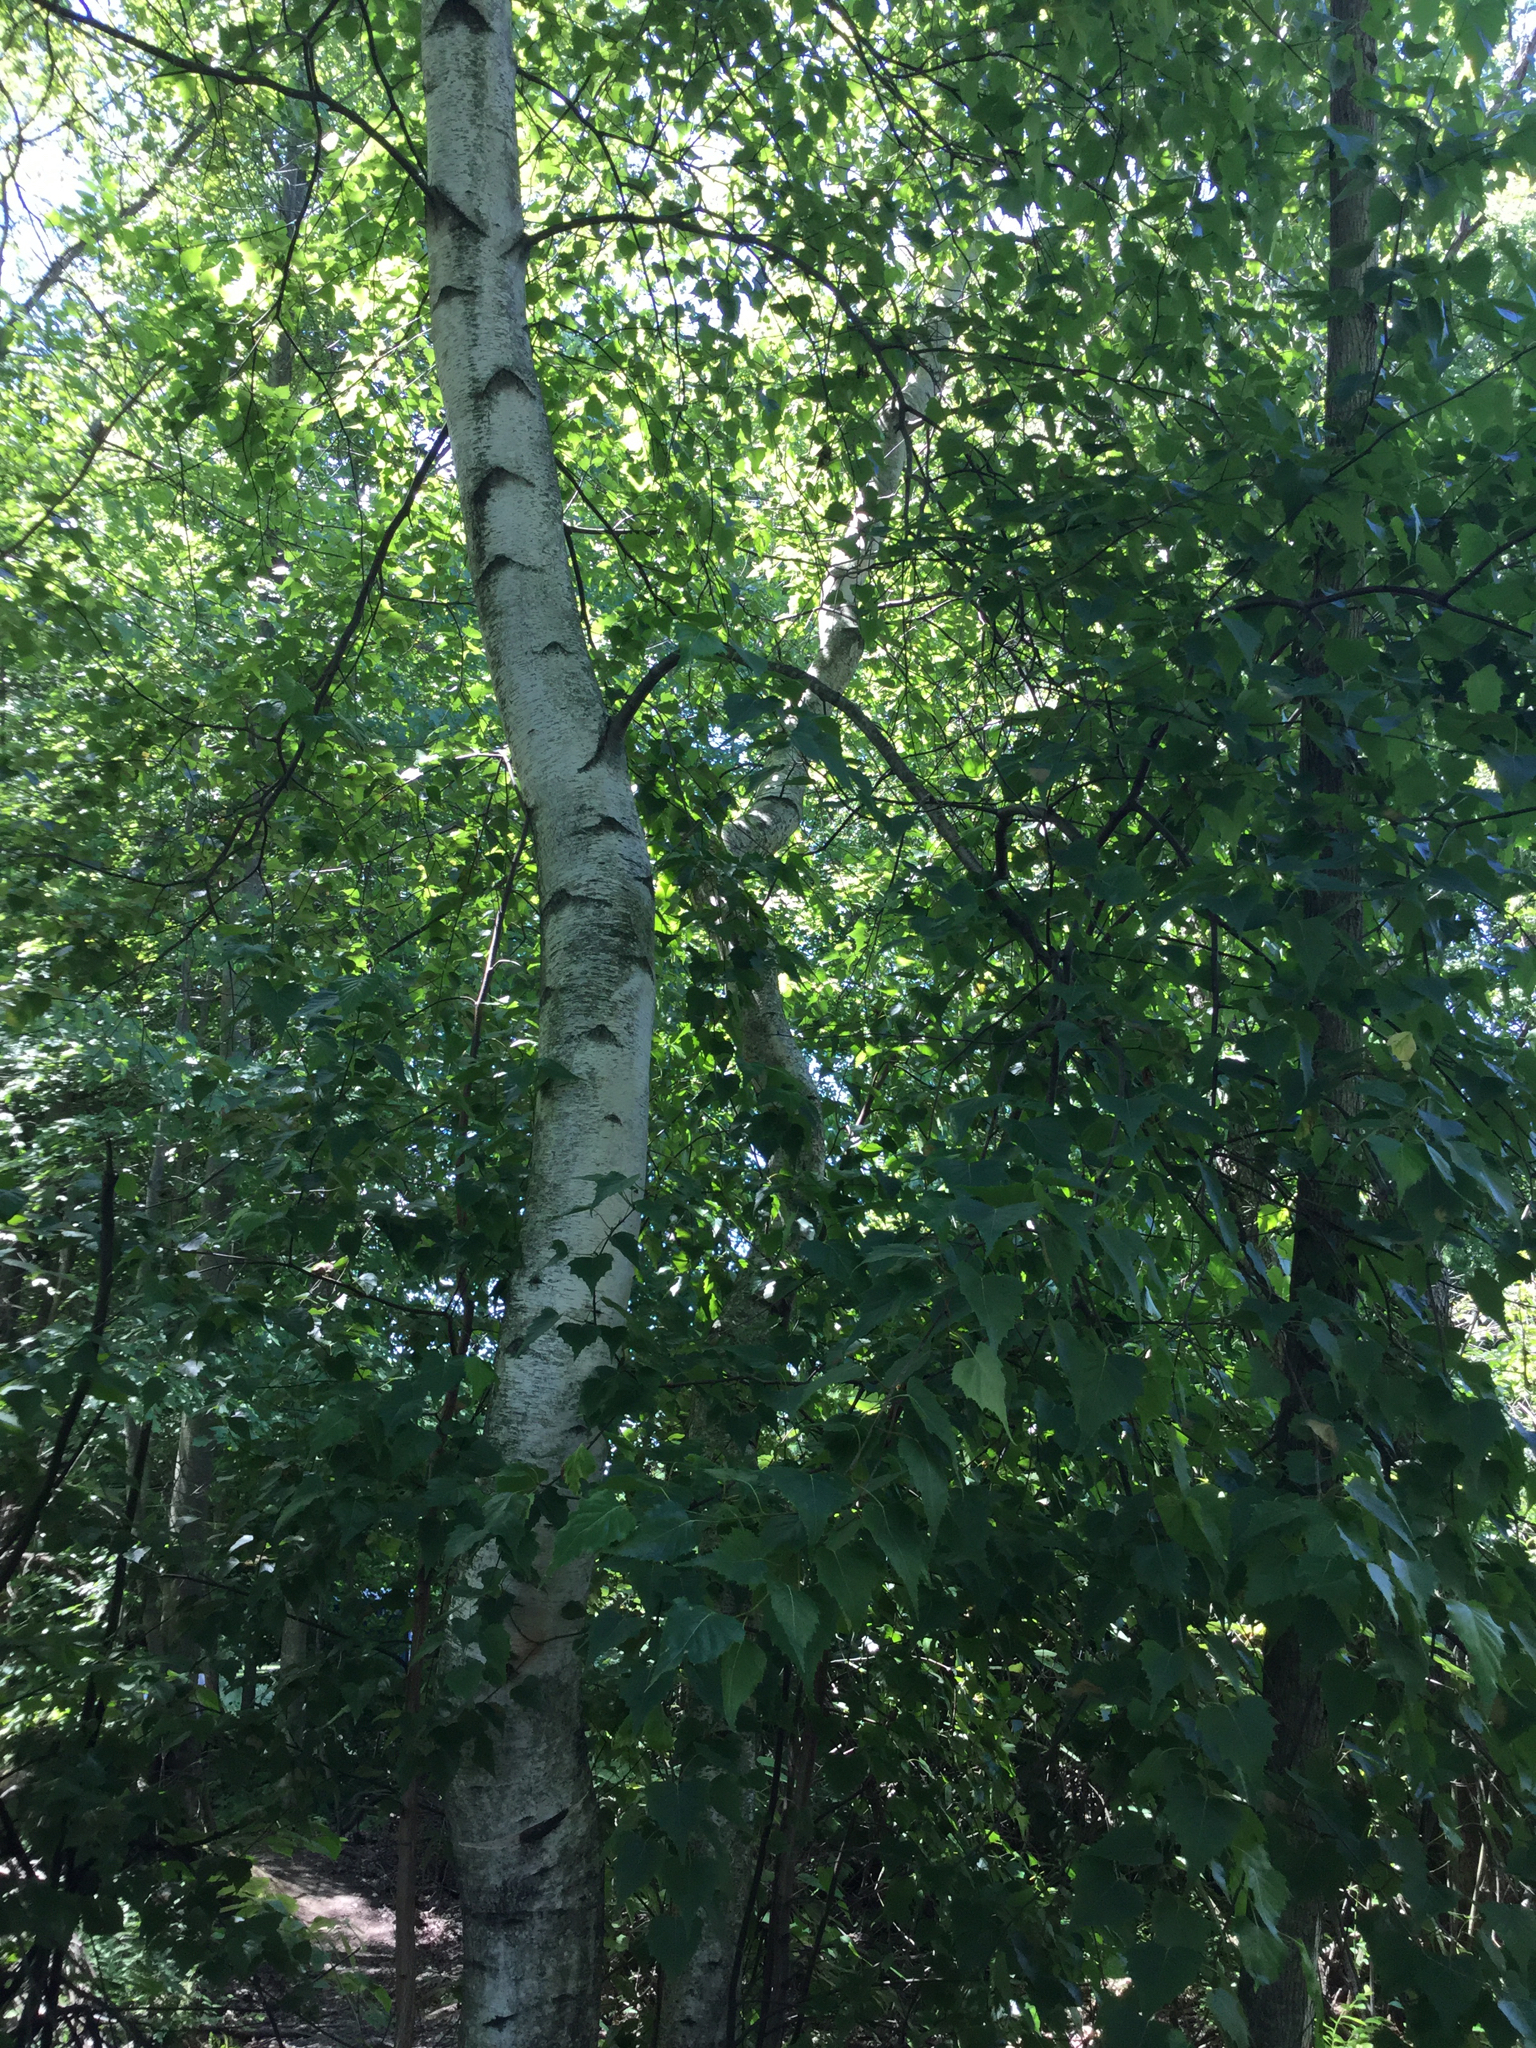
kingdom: Plantae
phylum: Tracheophyta
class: Magnoliopsida
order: Fagales
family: Betulaceae
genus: Betula
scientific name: Betula populifolia
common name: Fire birch
